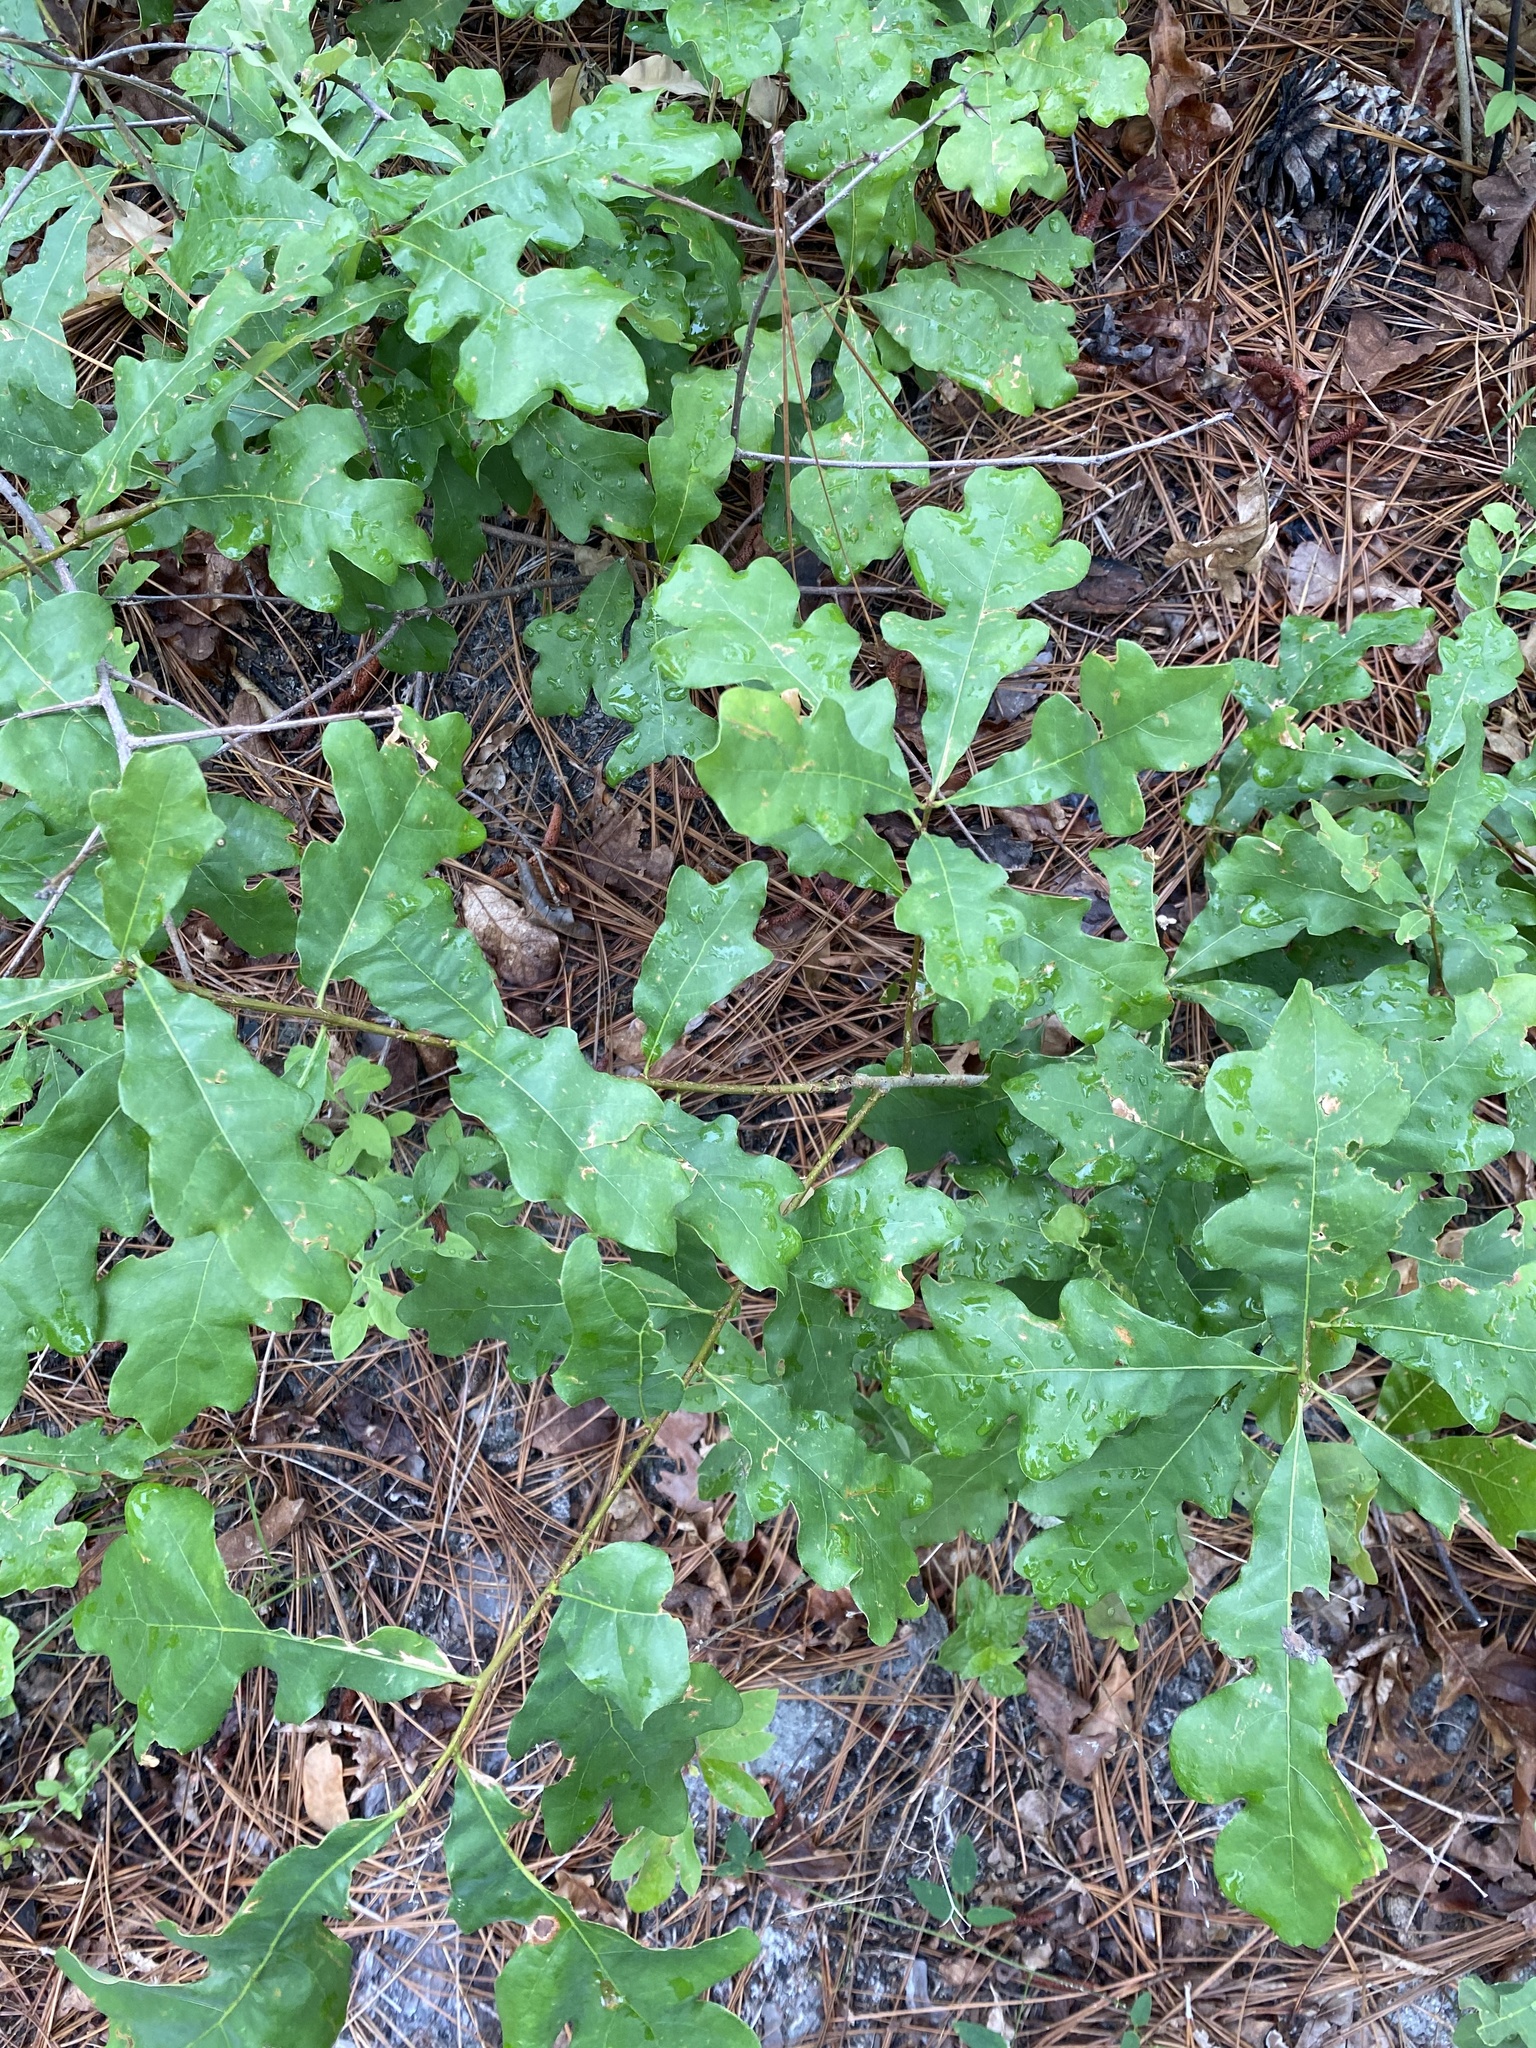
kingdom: Plantae
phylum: Tracheophyta
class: Magnoliopsida
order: Fagales
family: Fagaceae
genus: Quercus
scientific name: Quercus margaretiae
